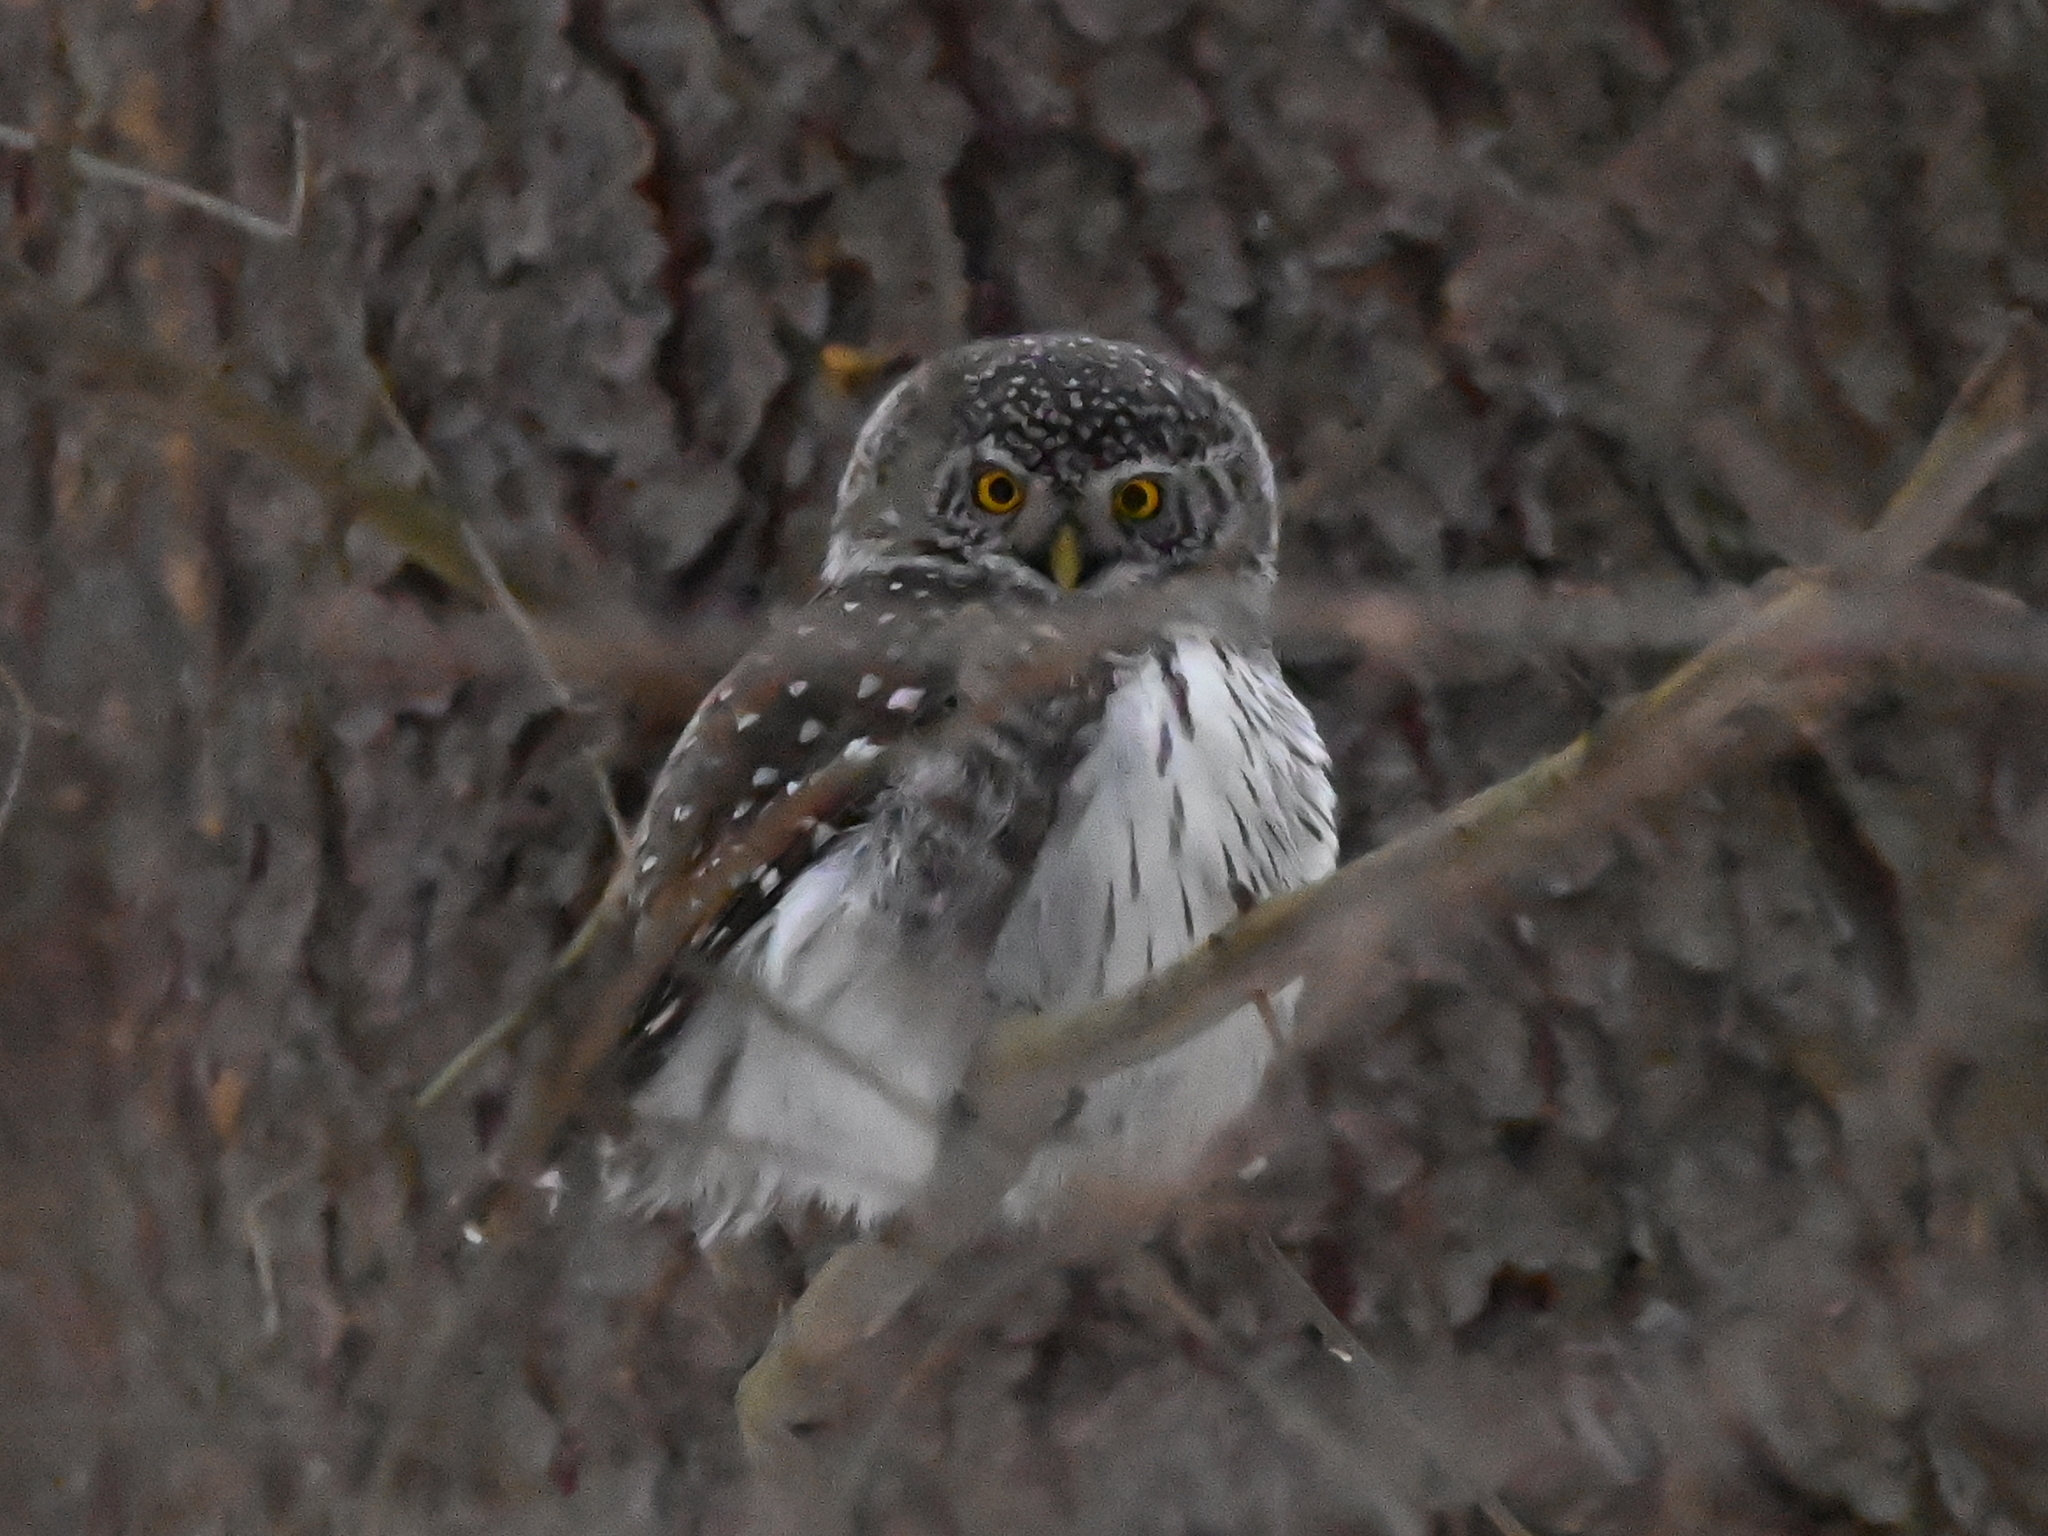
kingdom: Animalia
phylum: Chordata
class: Aves
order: Strigiformes
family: Strigidae
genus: Glaucidium
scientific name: Glaucidium passerinum
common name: Eurasian pygmy owl
